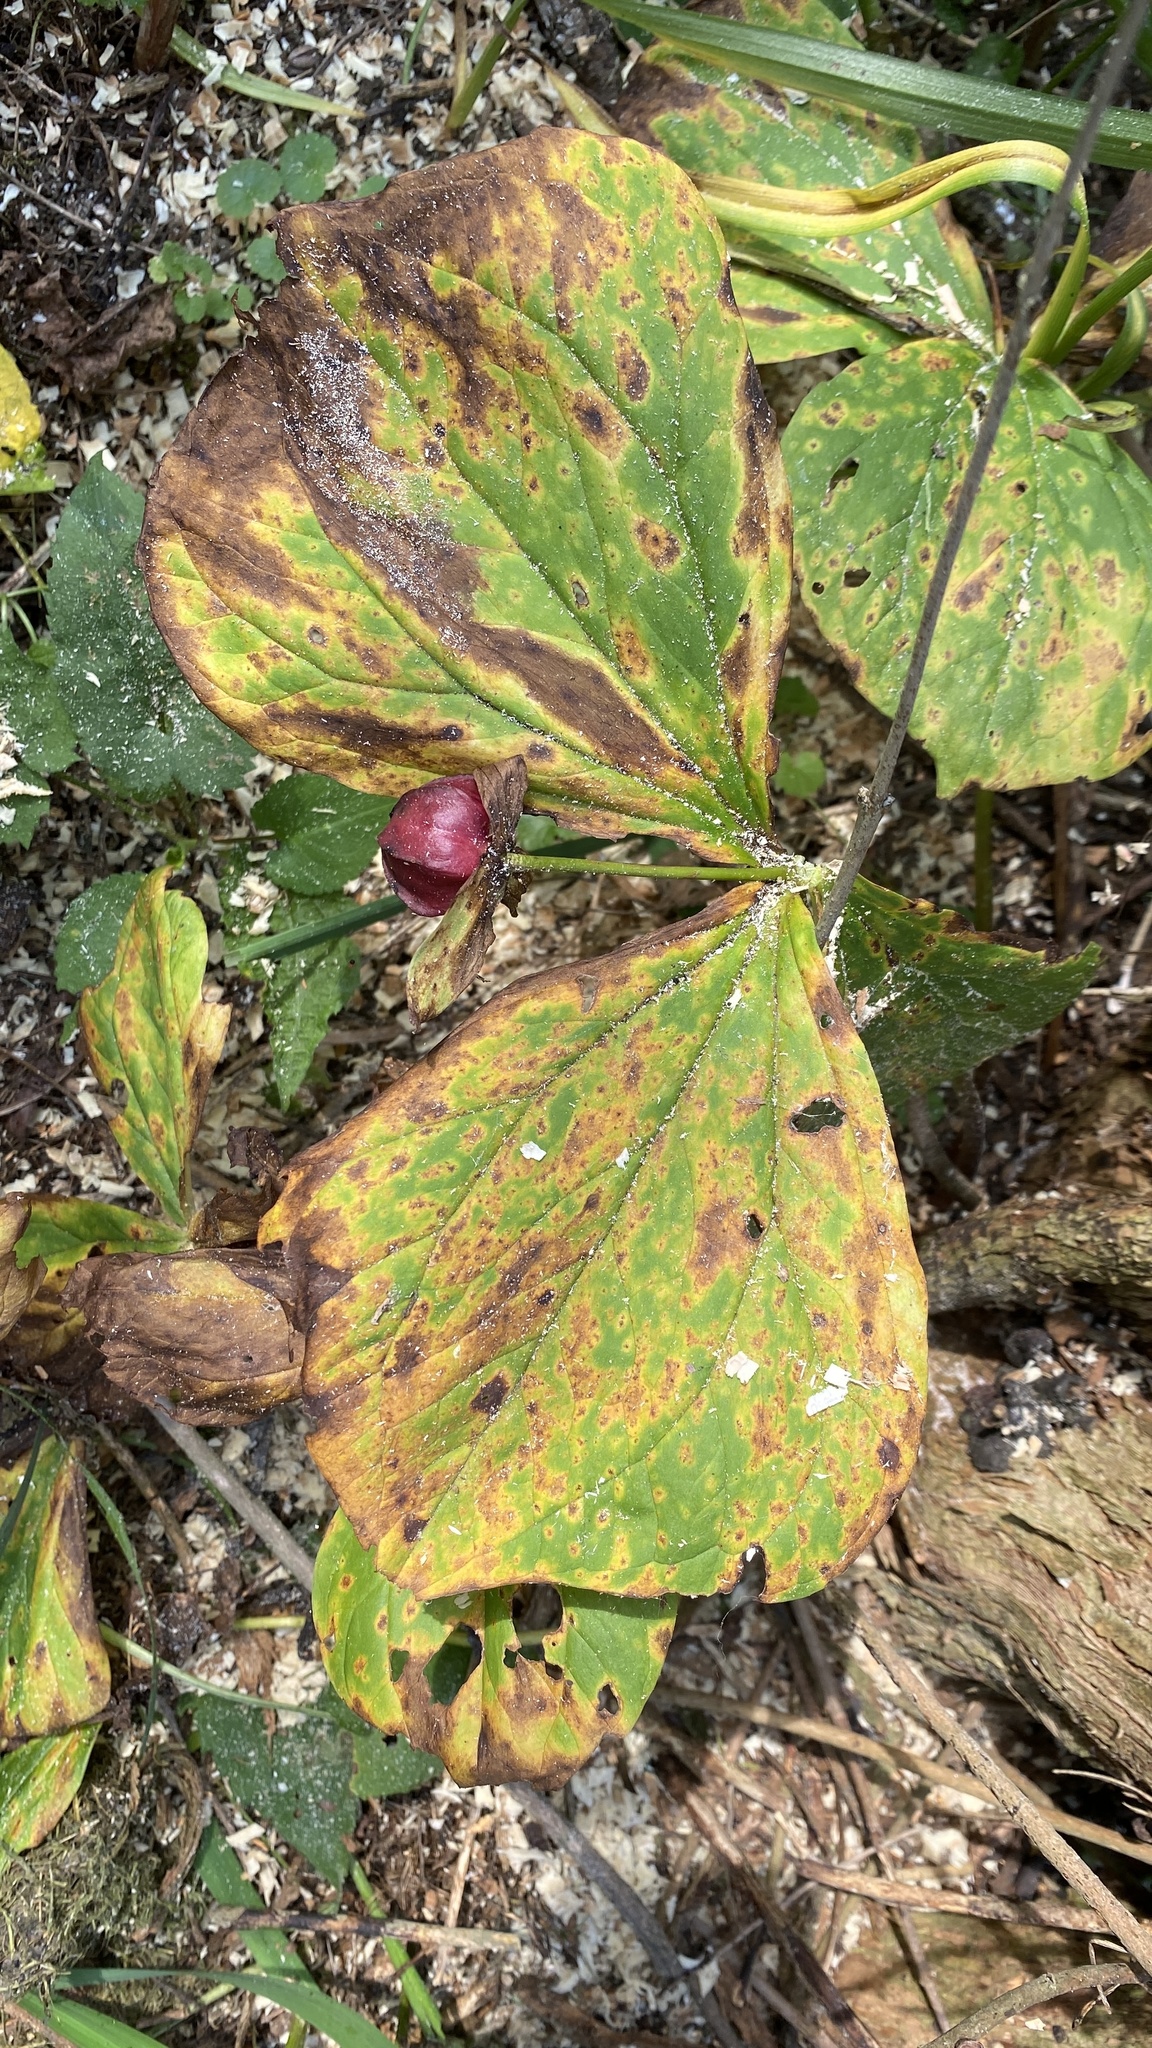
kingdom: Plantae
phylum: Tracheophyta
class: Liliopsida
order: Liliales
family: Melanthiaceae
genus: Trillium
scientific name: Trillium erectum
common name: Purple trillium
